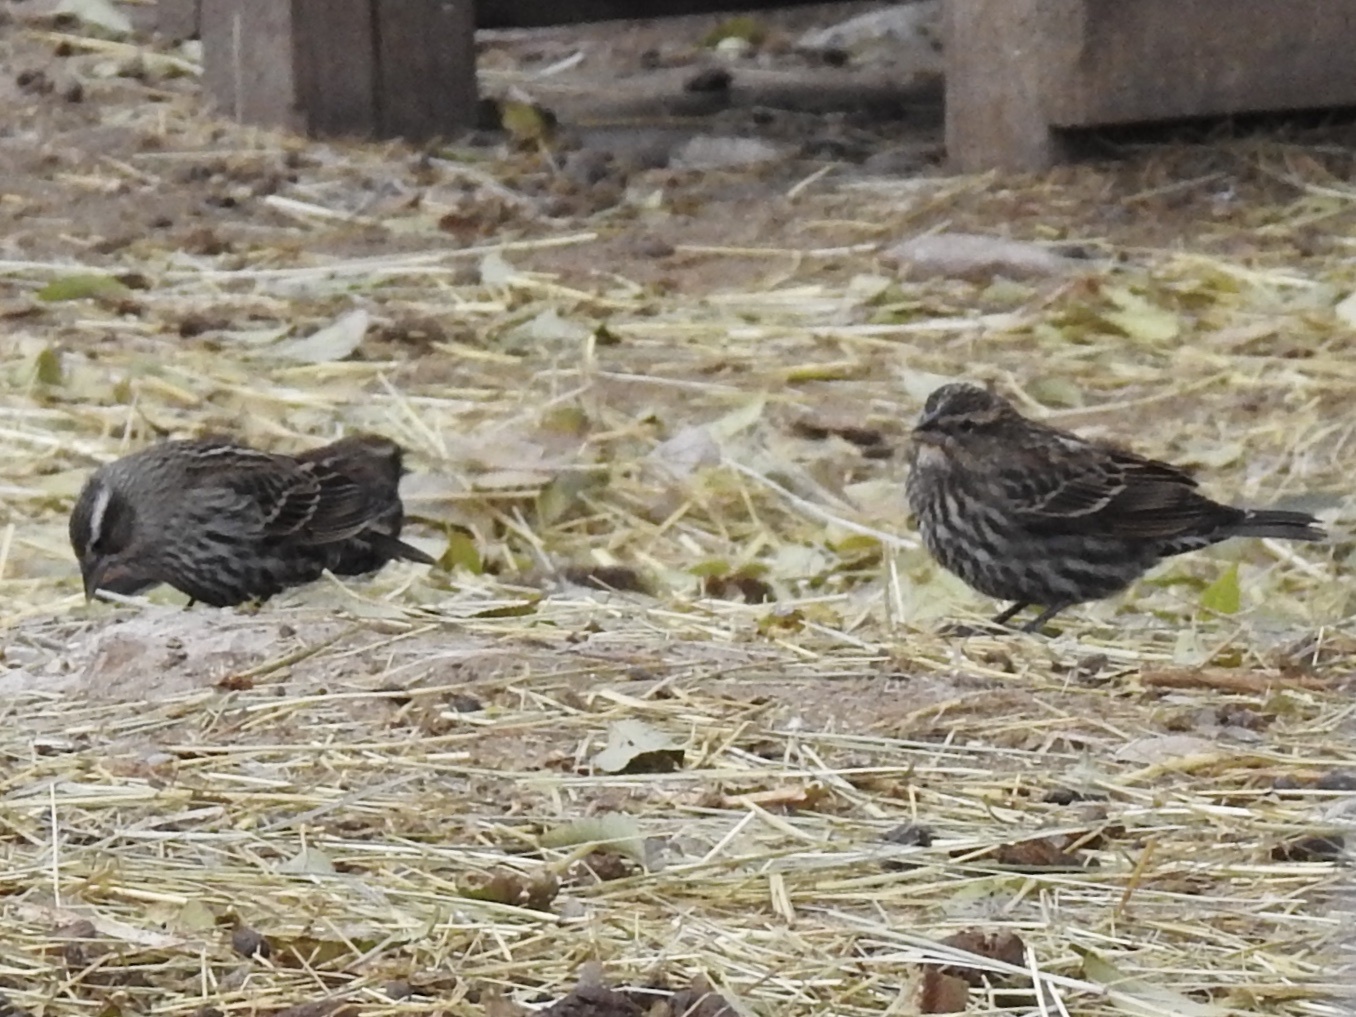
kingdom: Animalia
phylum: Chordata
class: Aves
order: Passeriformes
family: Icteridae
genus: Agelaius
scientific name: Agelaius phoeniceus
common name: Red-winged blackbird
